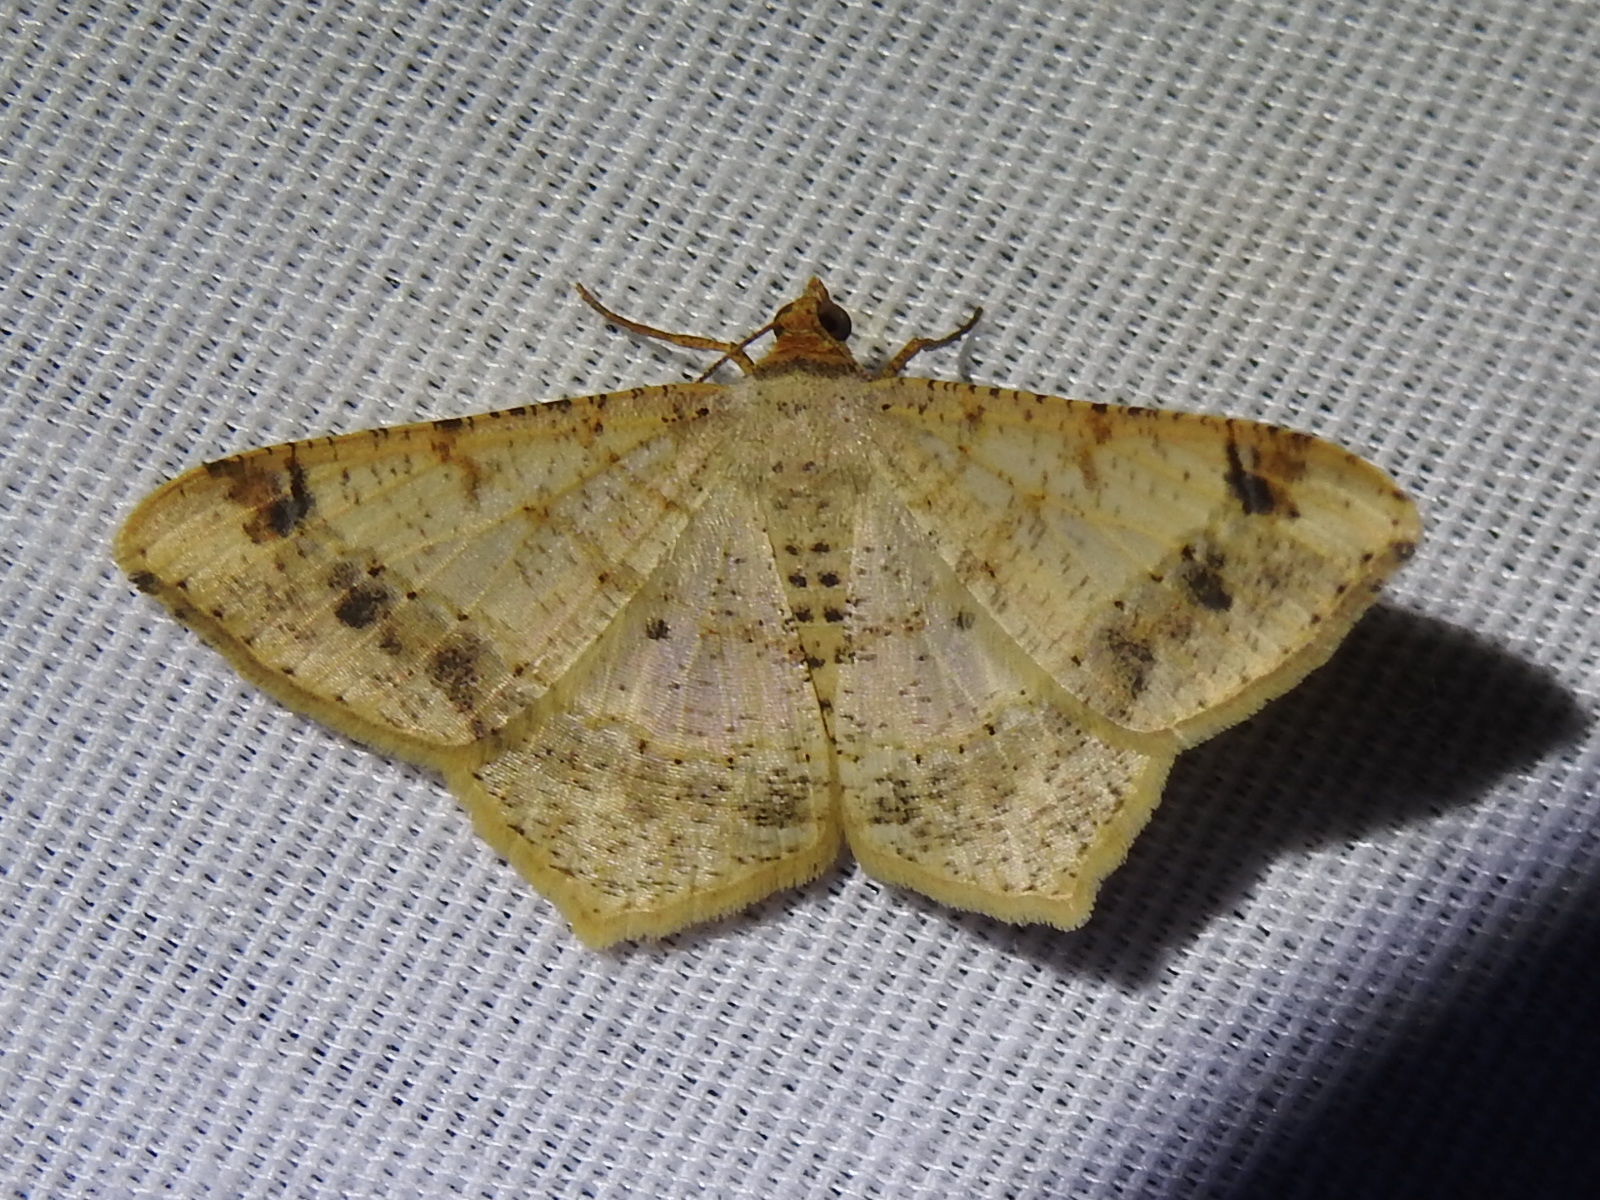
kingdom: Animalia
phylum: Arthropoda
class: Insecta
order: Lepidoptera
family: Geometridae
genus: Macaria
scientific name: Macaria abydata
